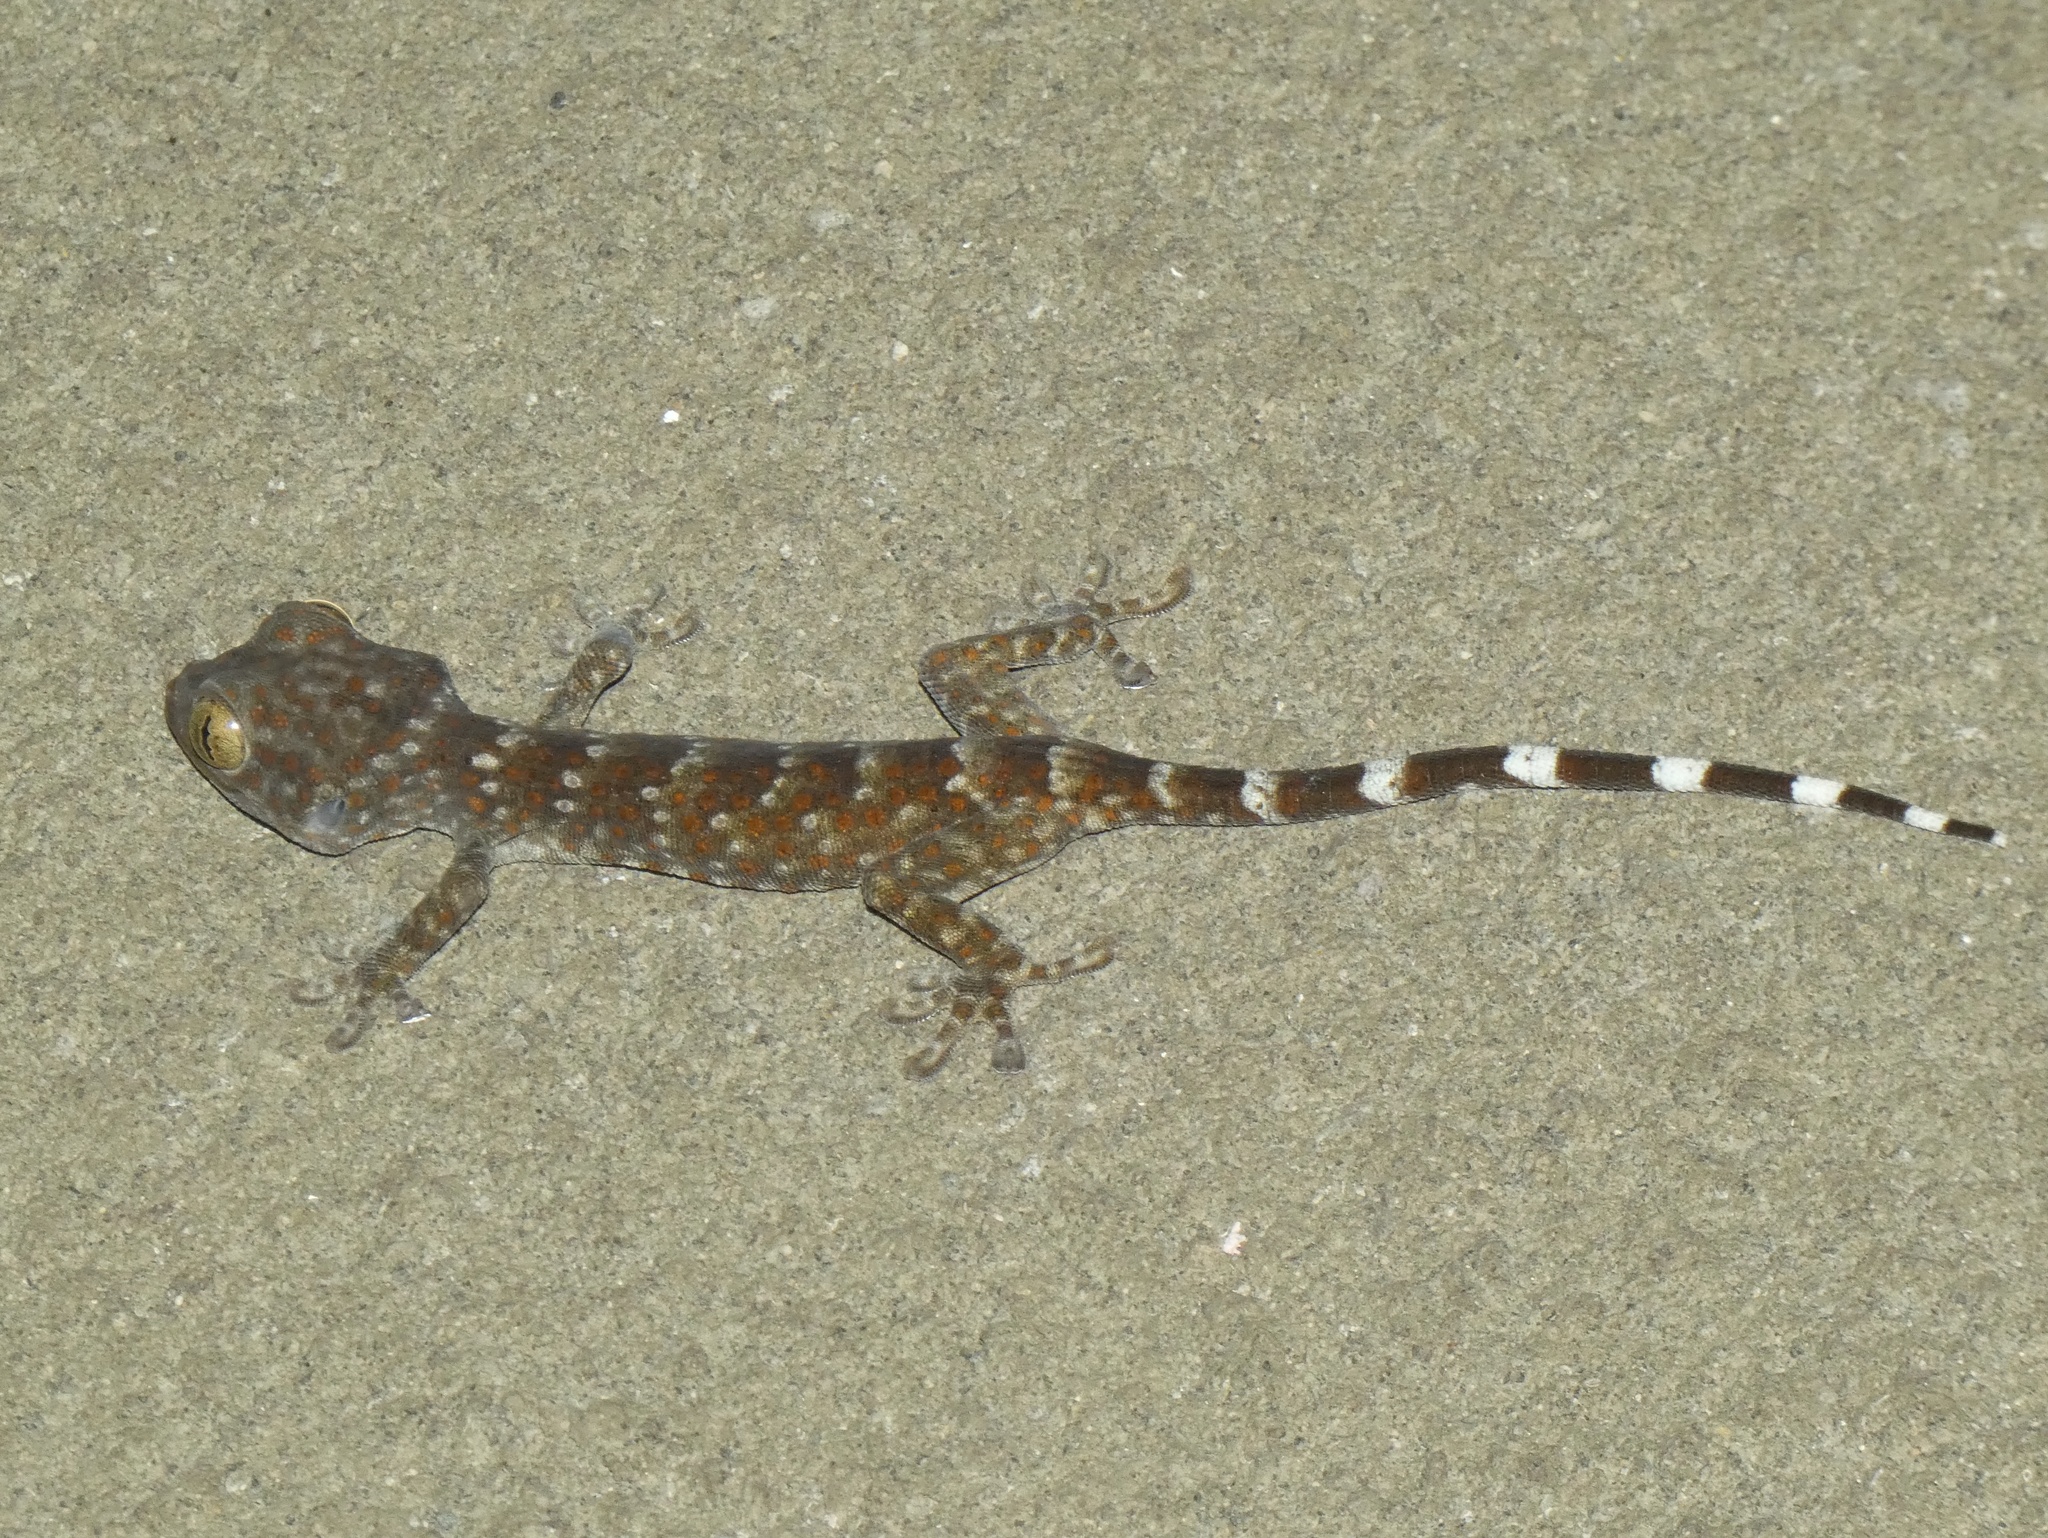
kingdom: Animalia
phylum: Chordata
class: Squamata
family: Gekkonidae
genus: Gekko
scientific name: Gekko gecko
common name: Tokay gecko
